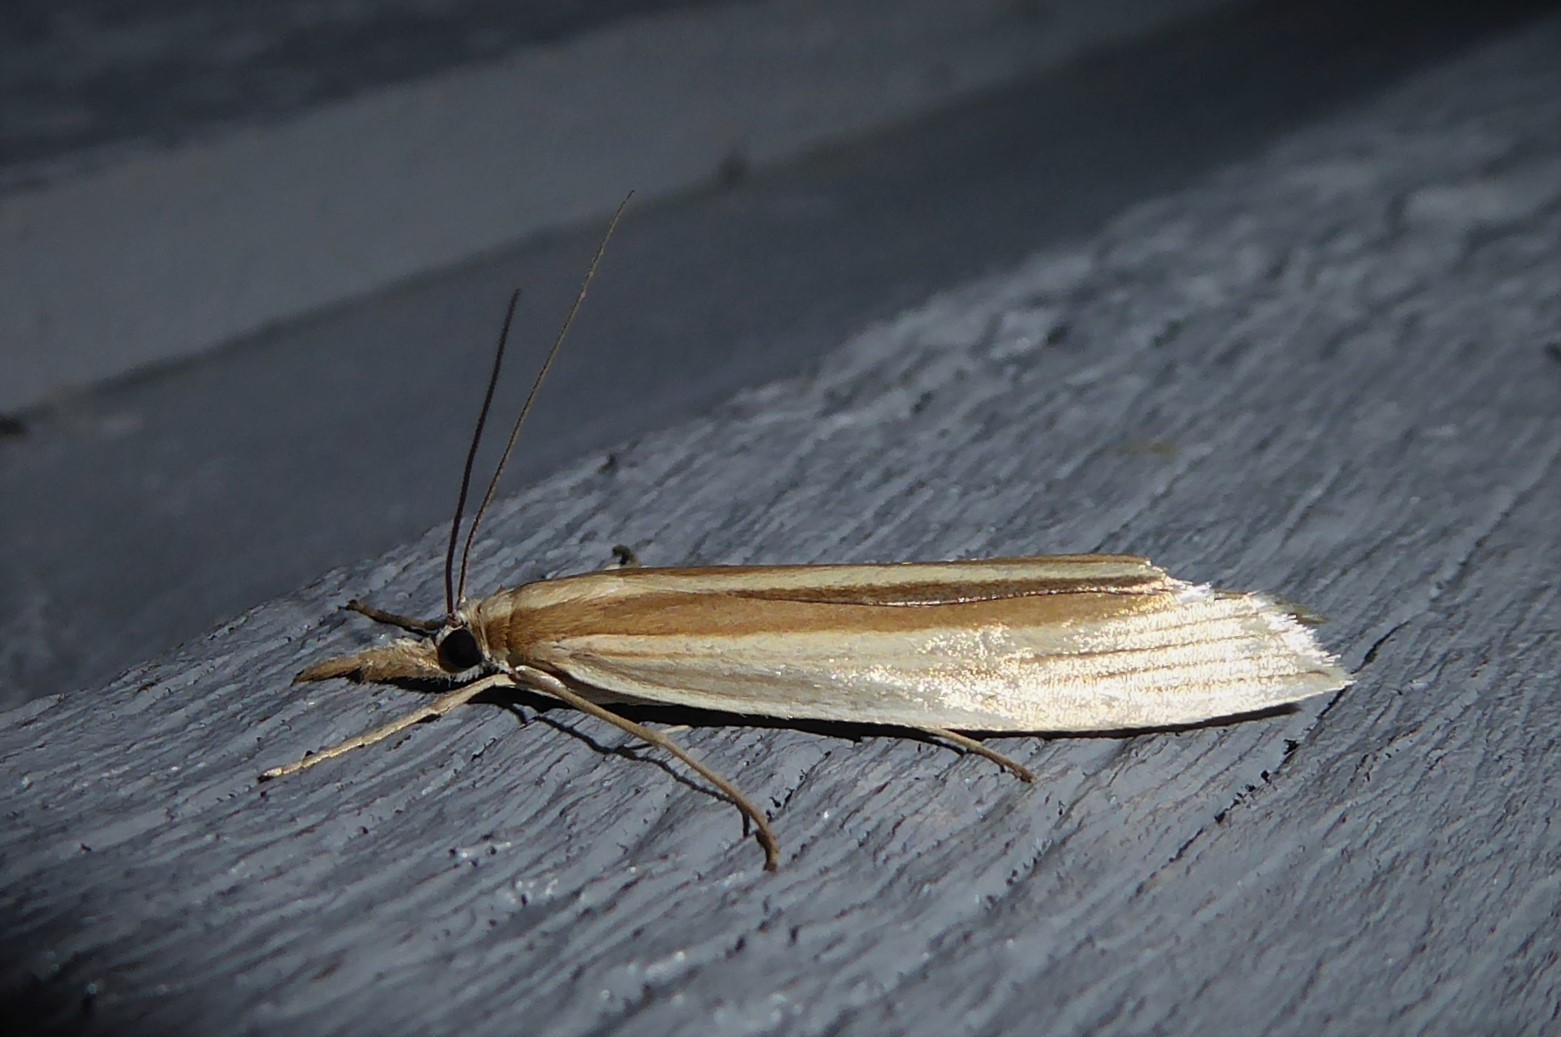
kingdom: Animalia
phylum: Arthropoda
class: Insecta
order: Lepidoptera
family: Crambidae
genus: Orocrambus
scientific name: Orocrambus angustipennis
